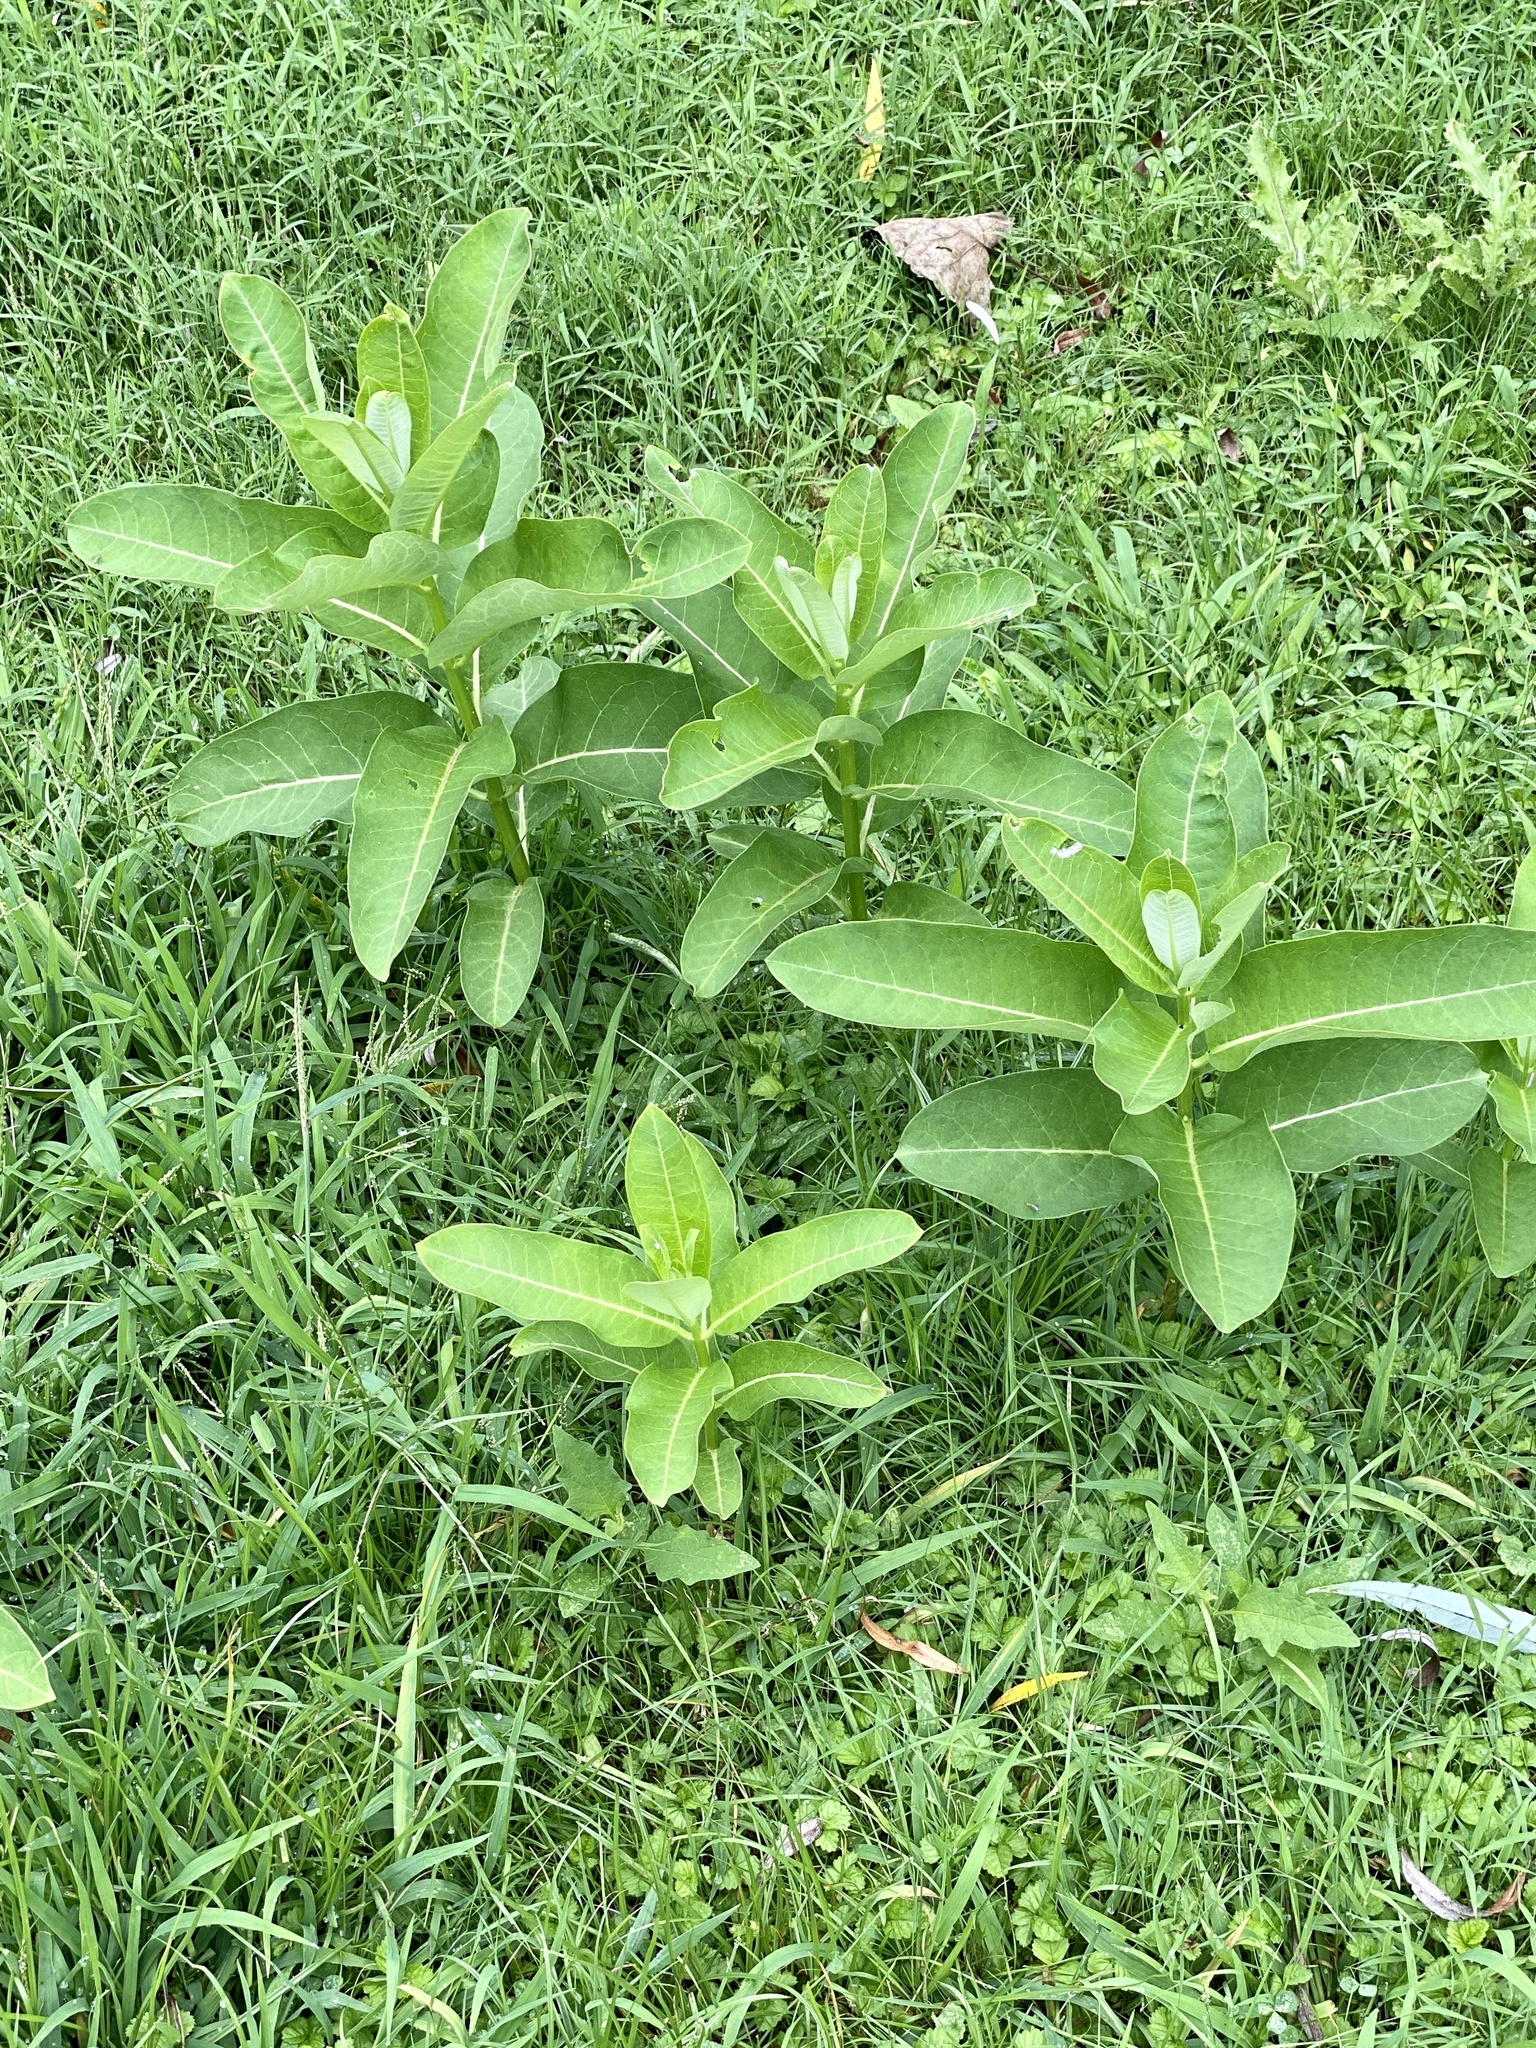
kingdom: Plantae
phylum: Tracheophyta
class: Magnoliopsida
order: Gentianales
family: Apocynaceae
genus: Asclepias
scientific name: Asclepias syriaca
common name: Common milkweed
